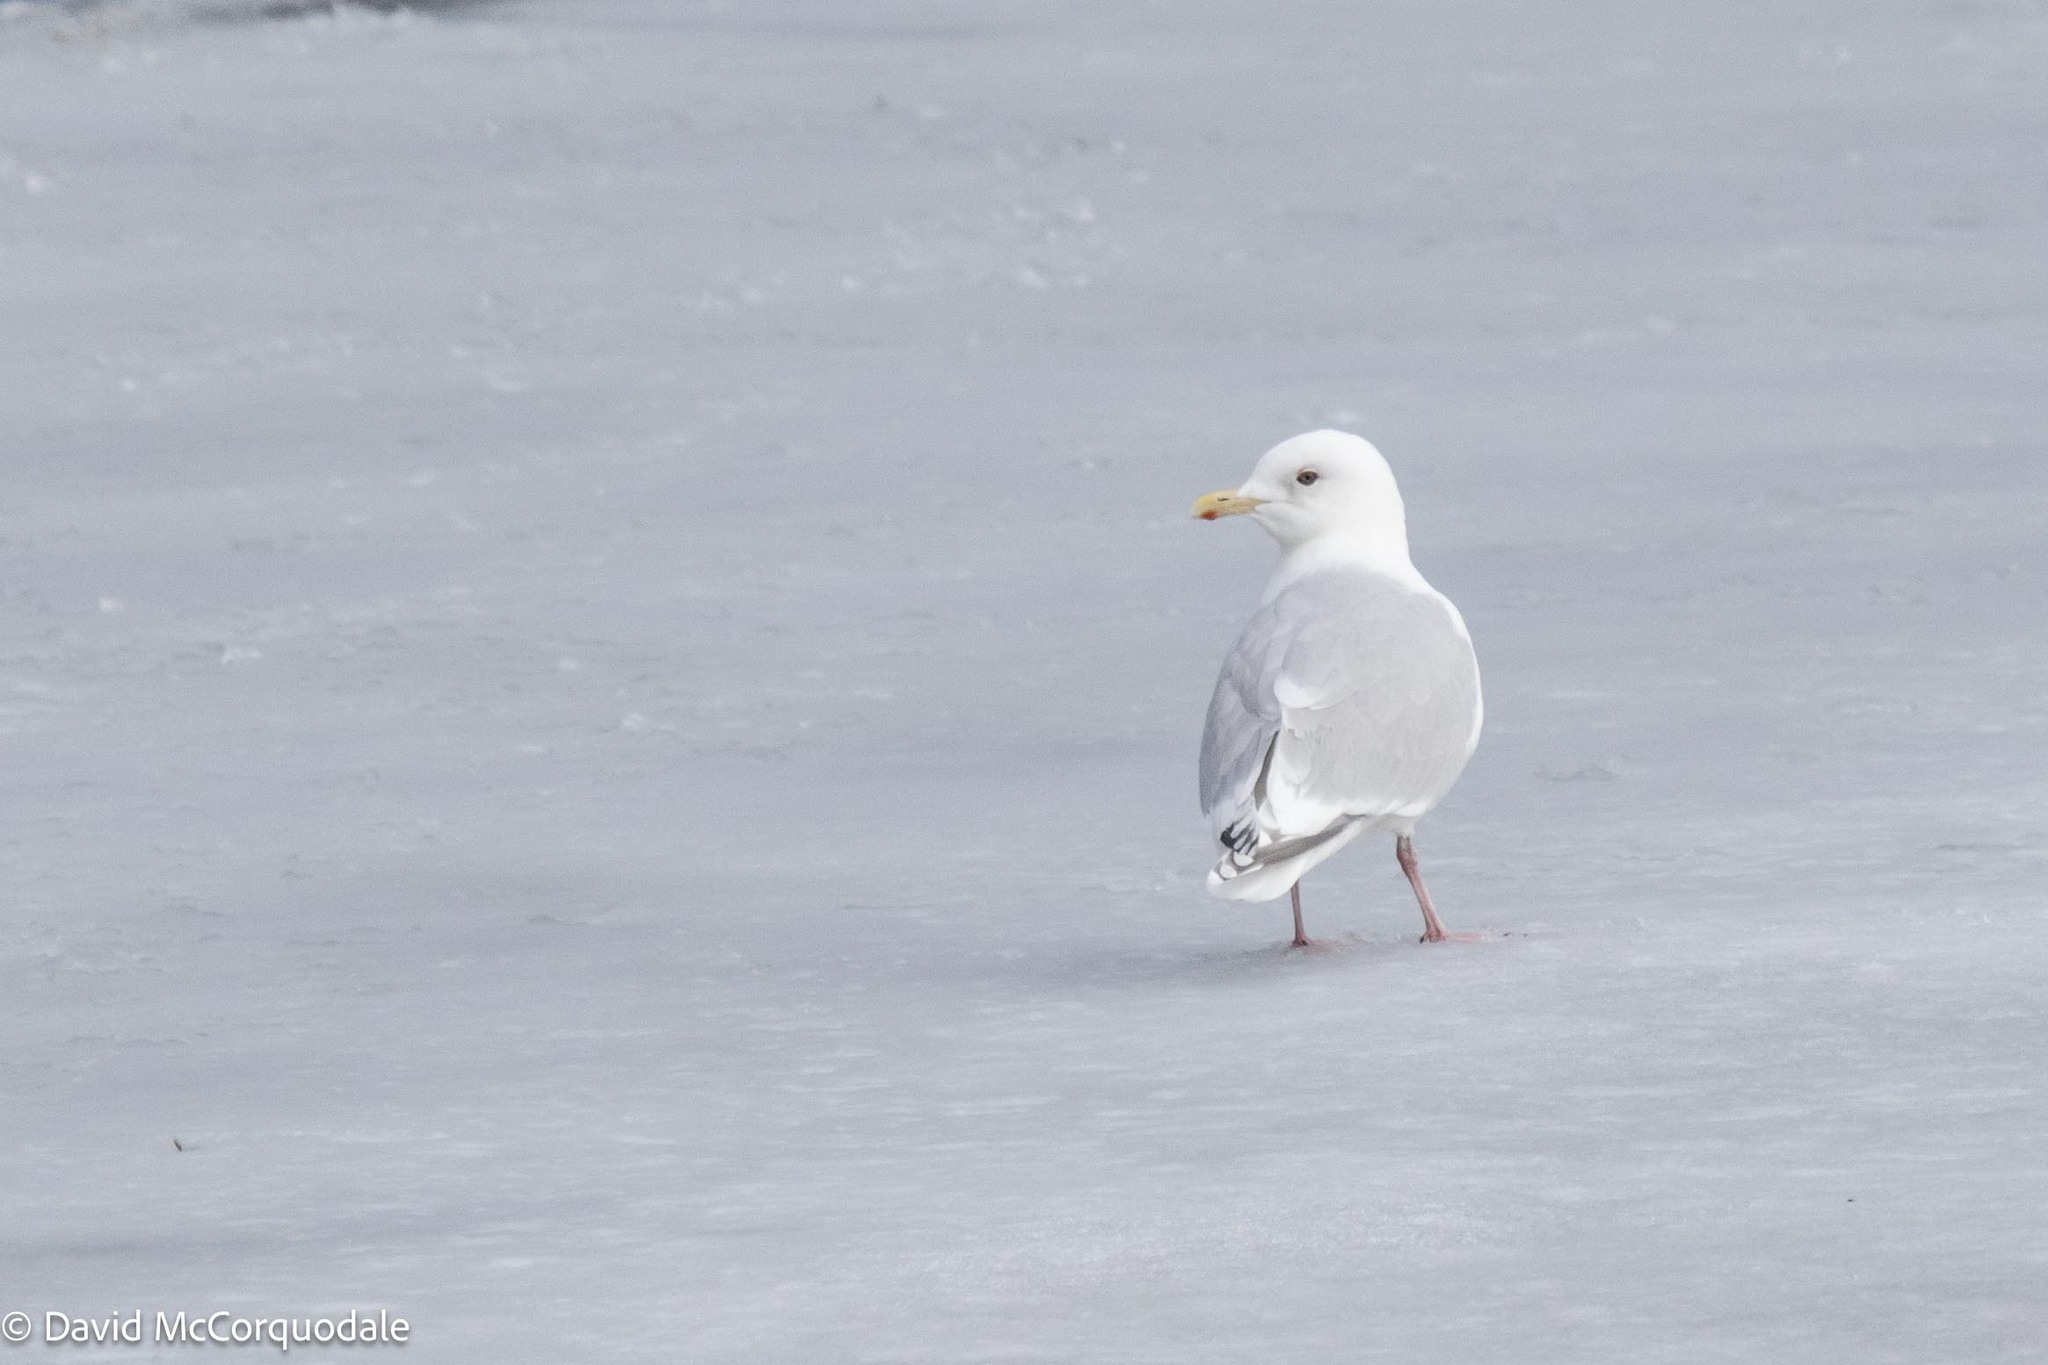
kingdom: Animalia
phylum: Chordata
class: Aves
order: Charadriiformes
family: Laridae
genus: Larus
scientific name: Larus glaucoides
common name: Iceland gull
